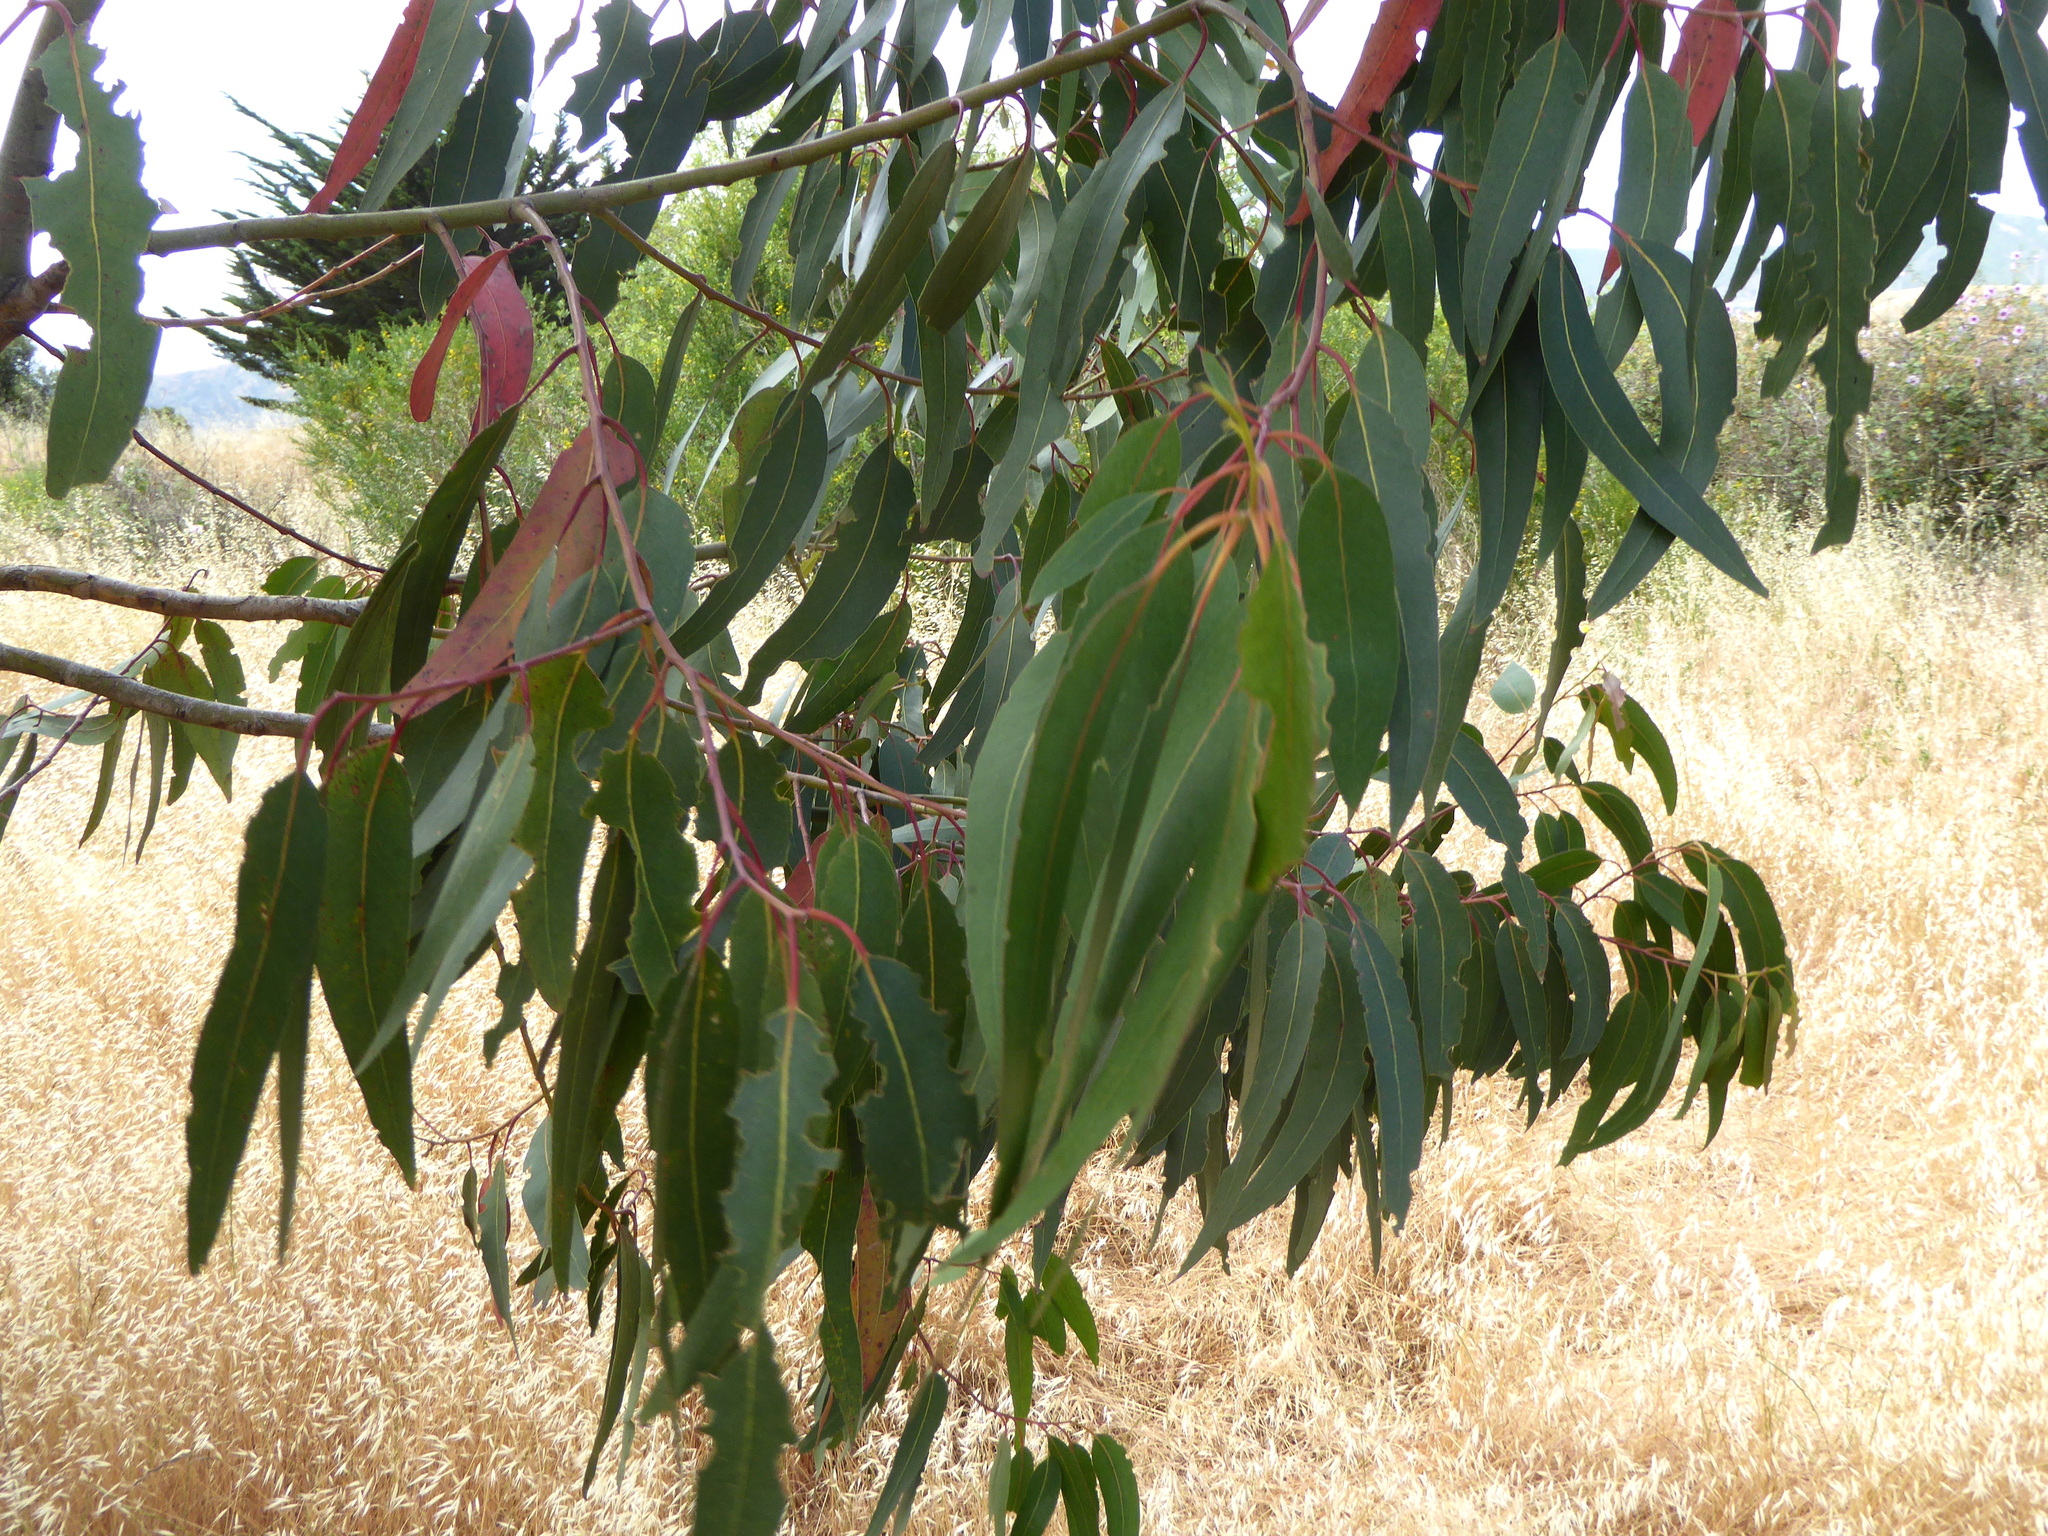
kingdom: Plantae
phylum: Tracheophyta
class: Magnoliopsida
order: Myrtales
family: Myrtaceae
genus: Eucalyptus
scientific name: Eucalyptus globulus
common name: Southern blue-gum
